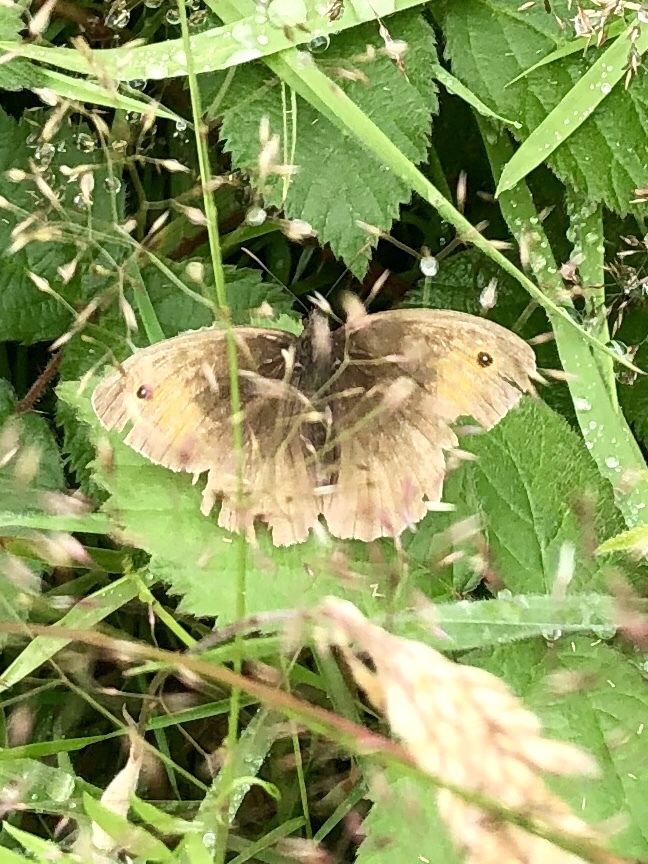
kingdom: Animalia
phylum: Arthropoda
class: Insecta
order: Lepidoptera
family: Nymphalidae
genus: Maniola
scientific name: Maniola jurtina
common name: Meadow brown
